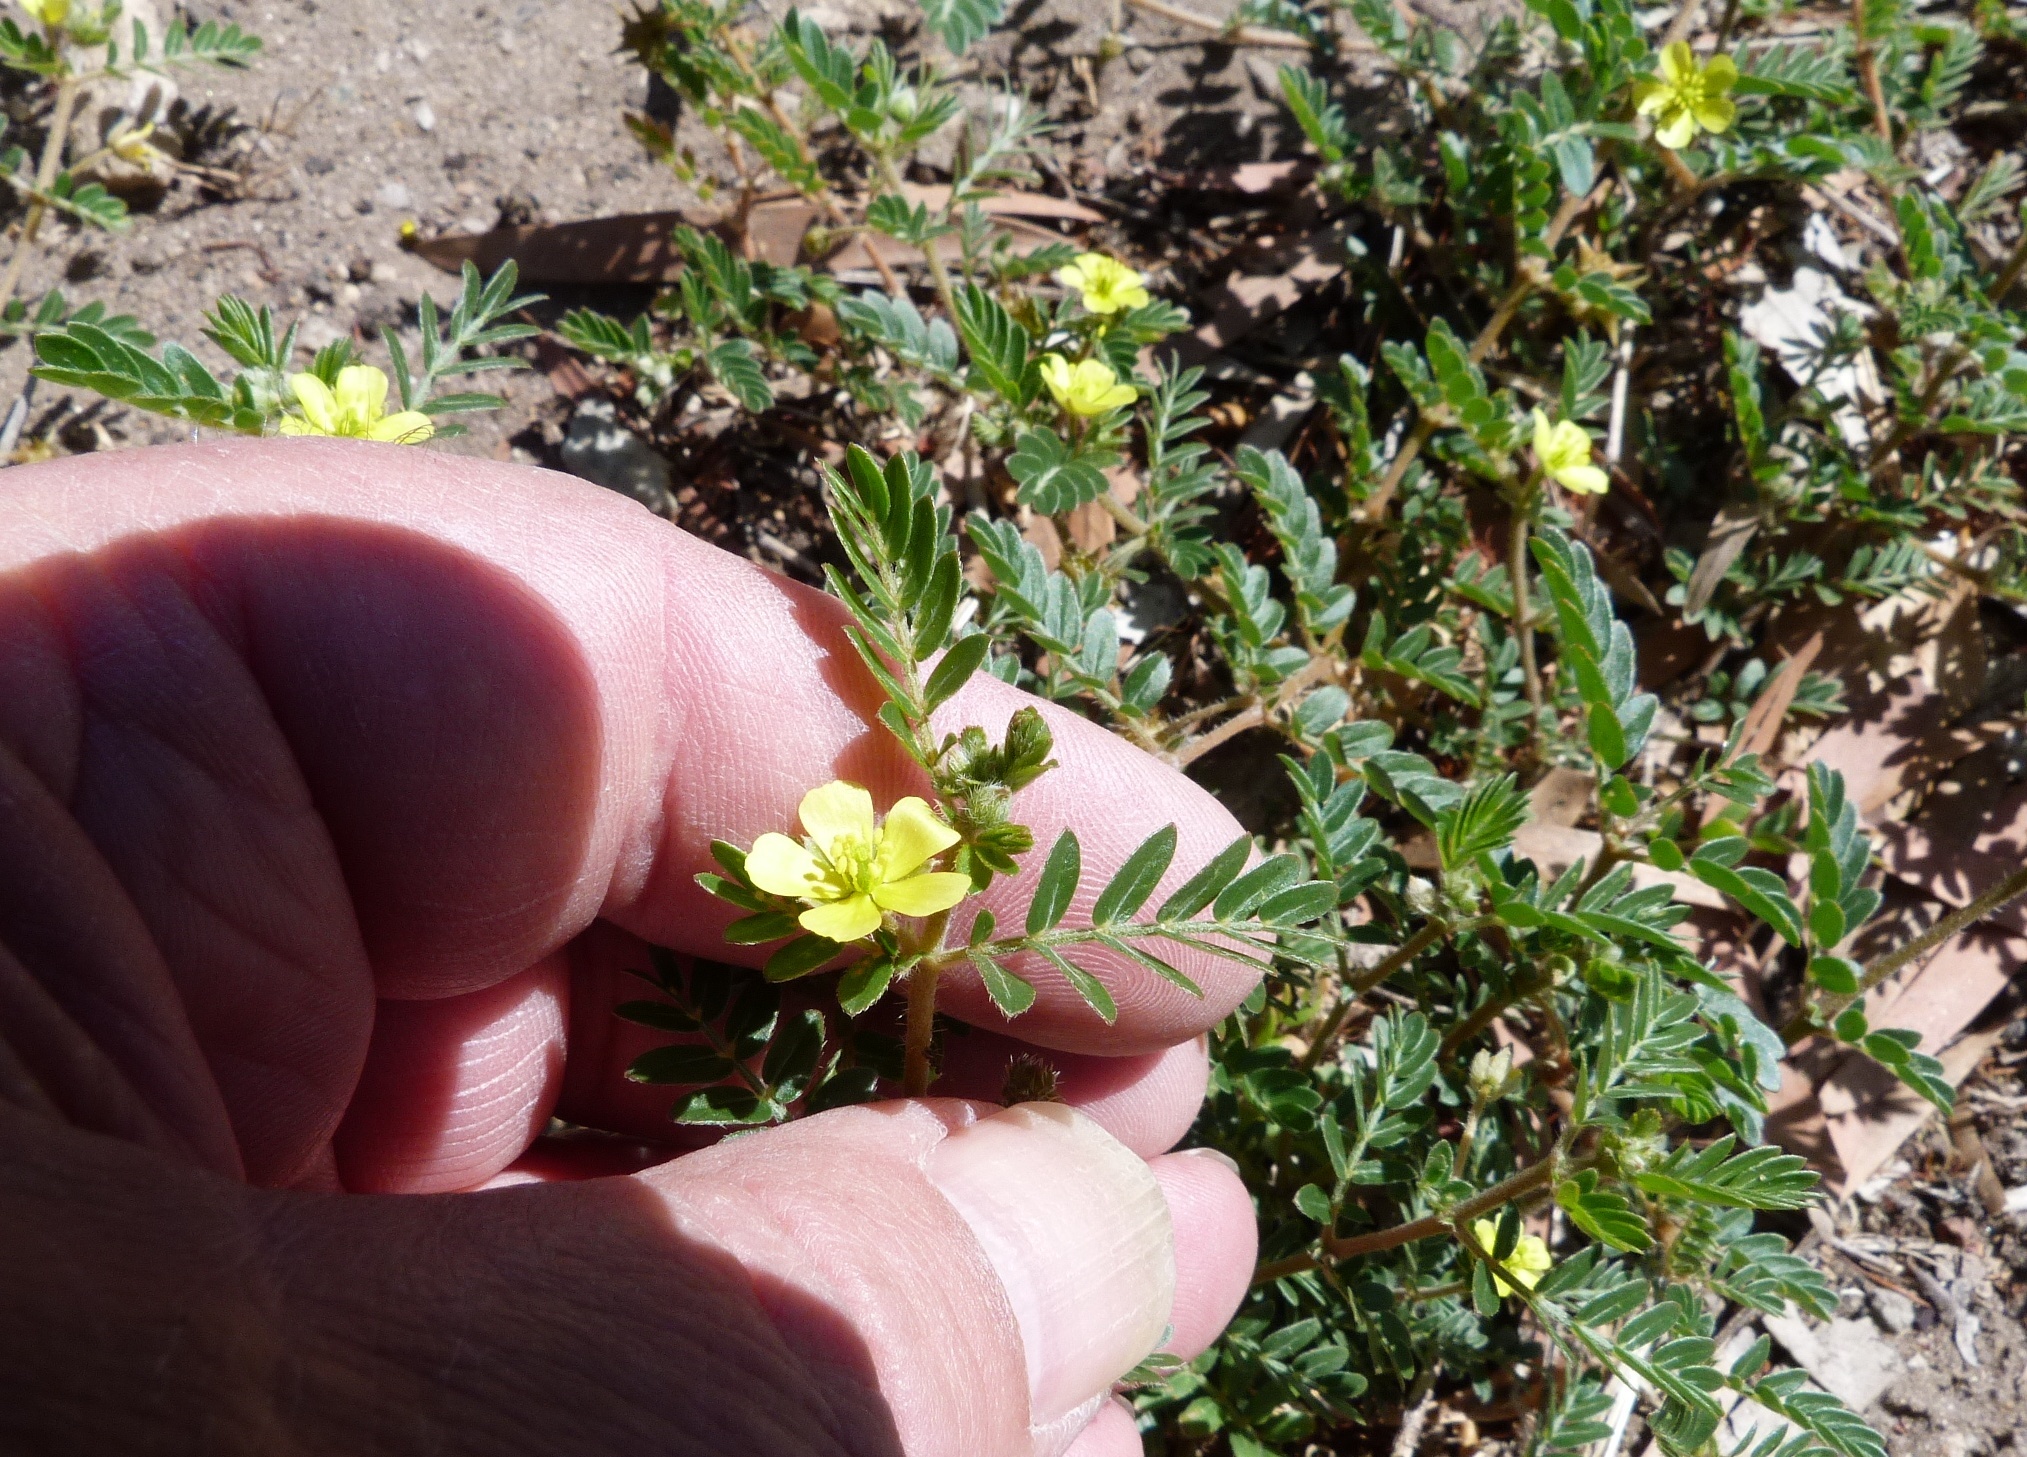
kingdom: Plantae
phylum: Tracheophyta
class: Magnoliopsida
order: Zygophyllales
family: Zygophyllaceae
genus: Tribulus
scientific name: Tribulus terrestris
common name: Puncturevine
